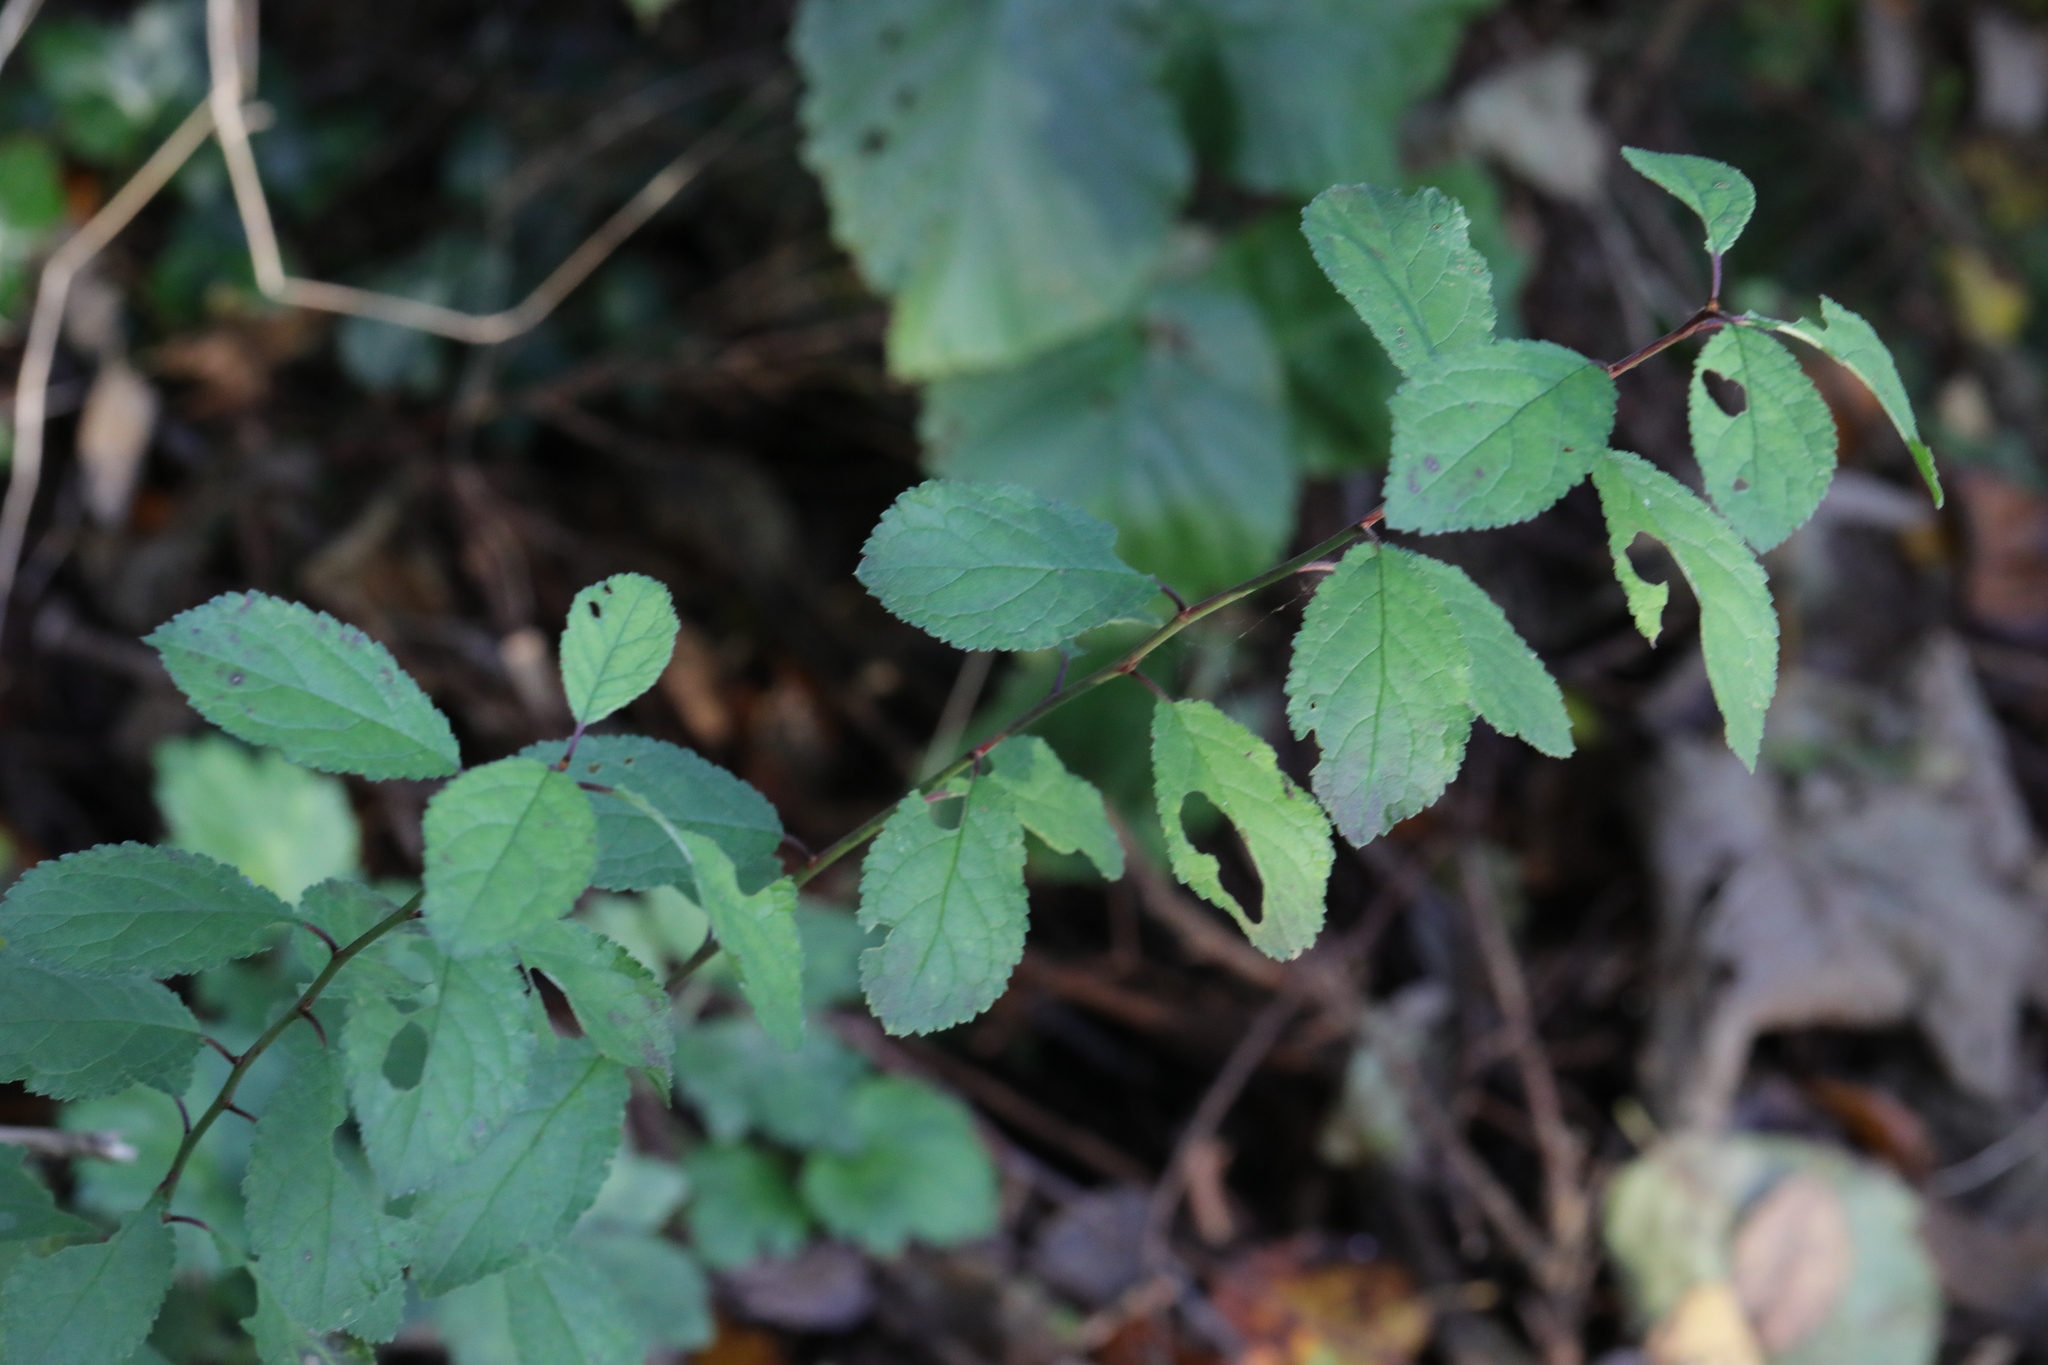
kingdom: Plantae
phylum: Tracheophyta
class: Magnoliopsida
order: Rosales
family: Rosaceae
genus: Prunus
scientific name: Prunus spinosa
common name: Blackthorn
